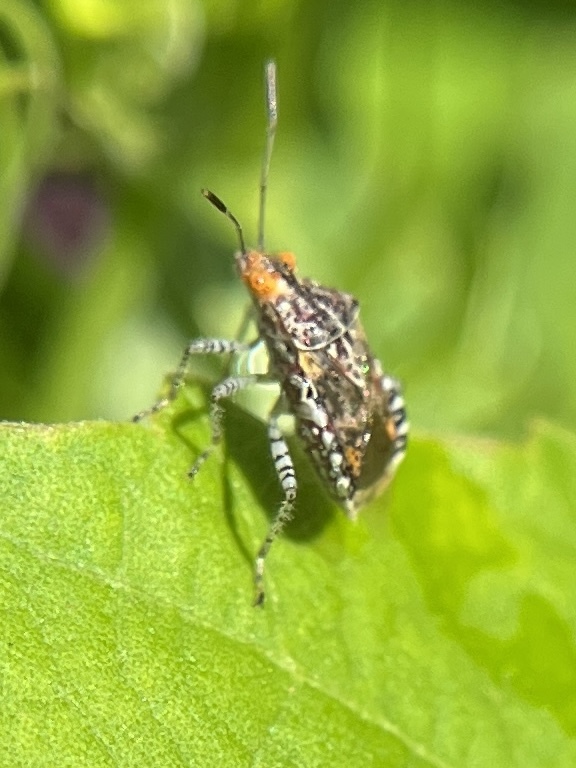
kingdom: Animalia
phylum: Arthropoda
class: Insecta
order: Hemiptera
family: Rhopalidae
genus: Niesthrea
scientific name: Niesthrea louisianica
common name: Scentless plant bug
